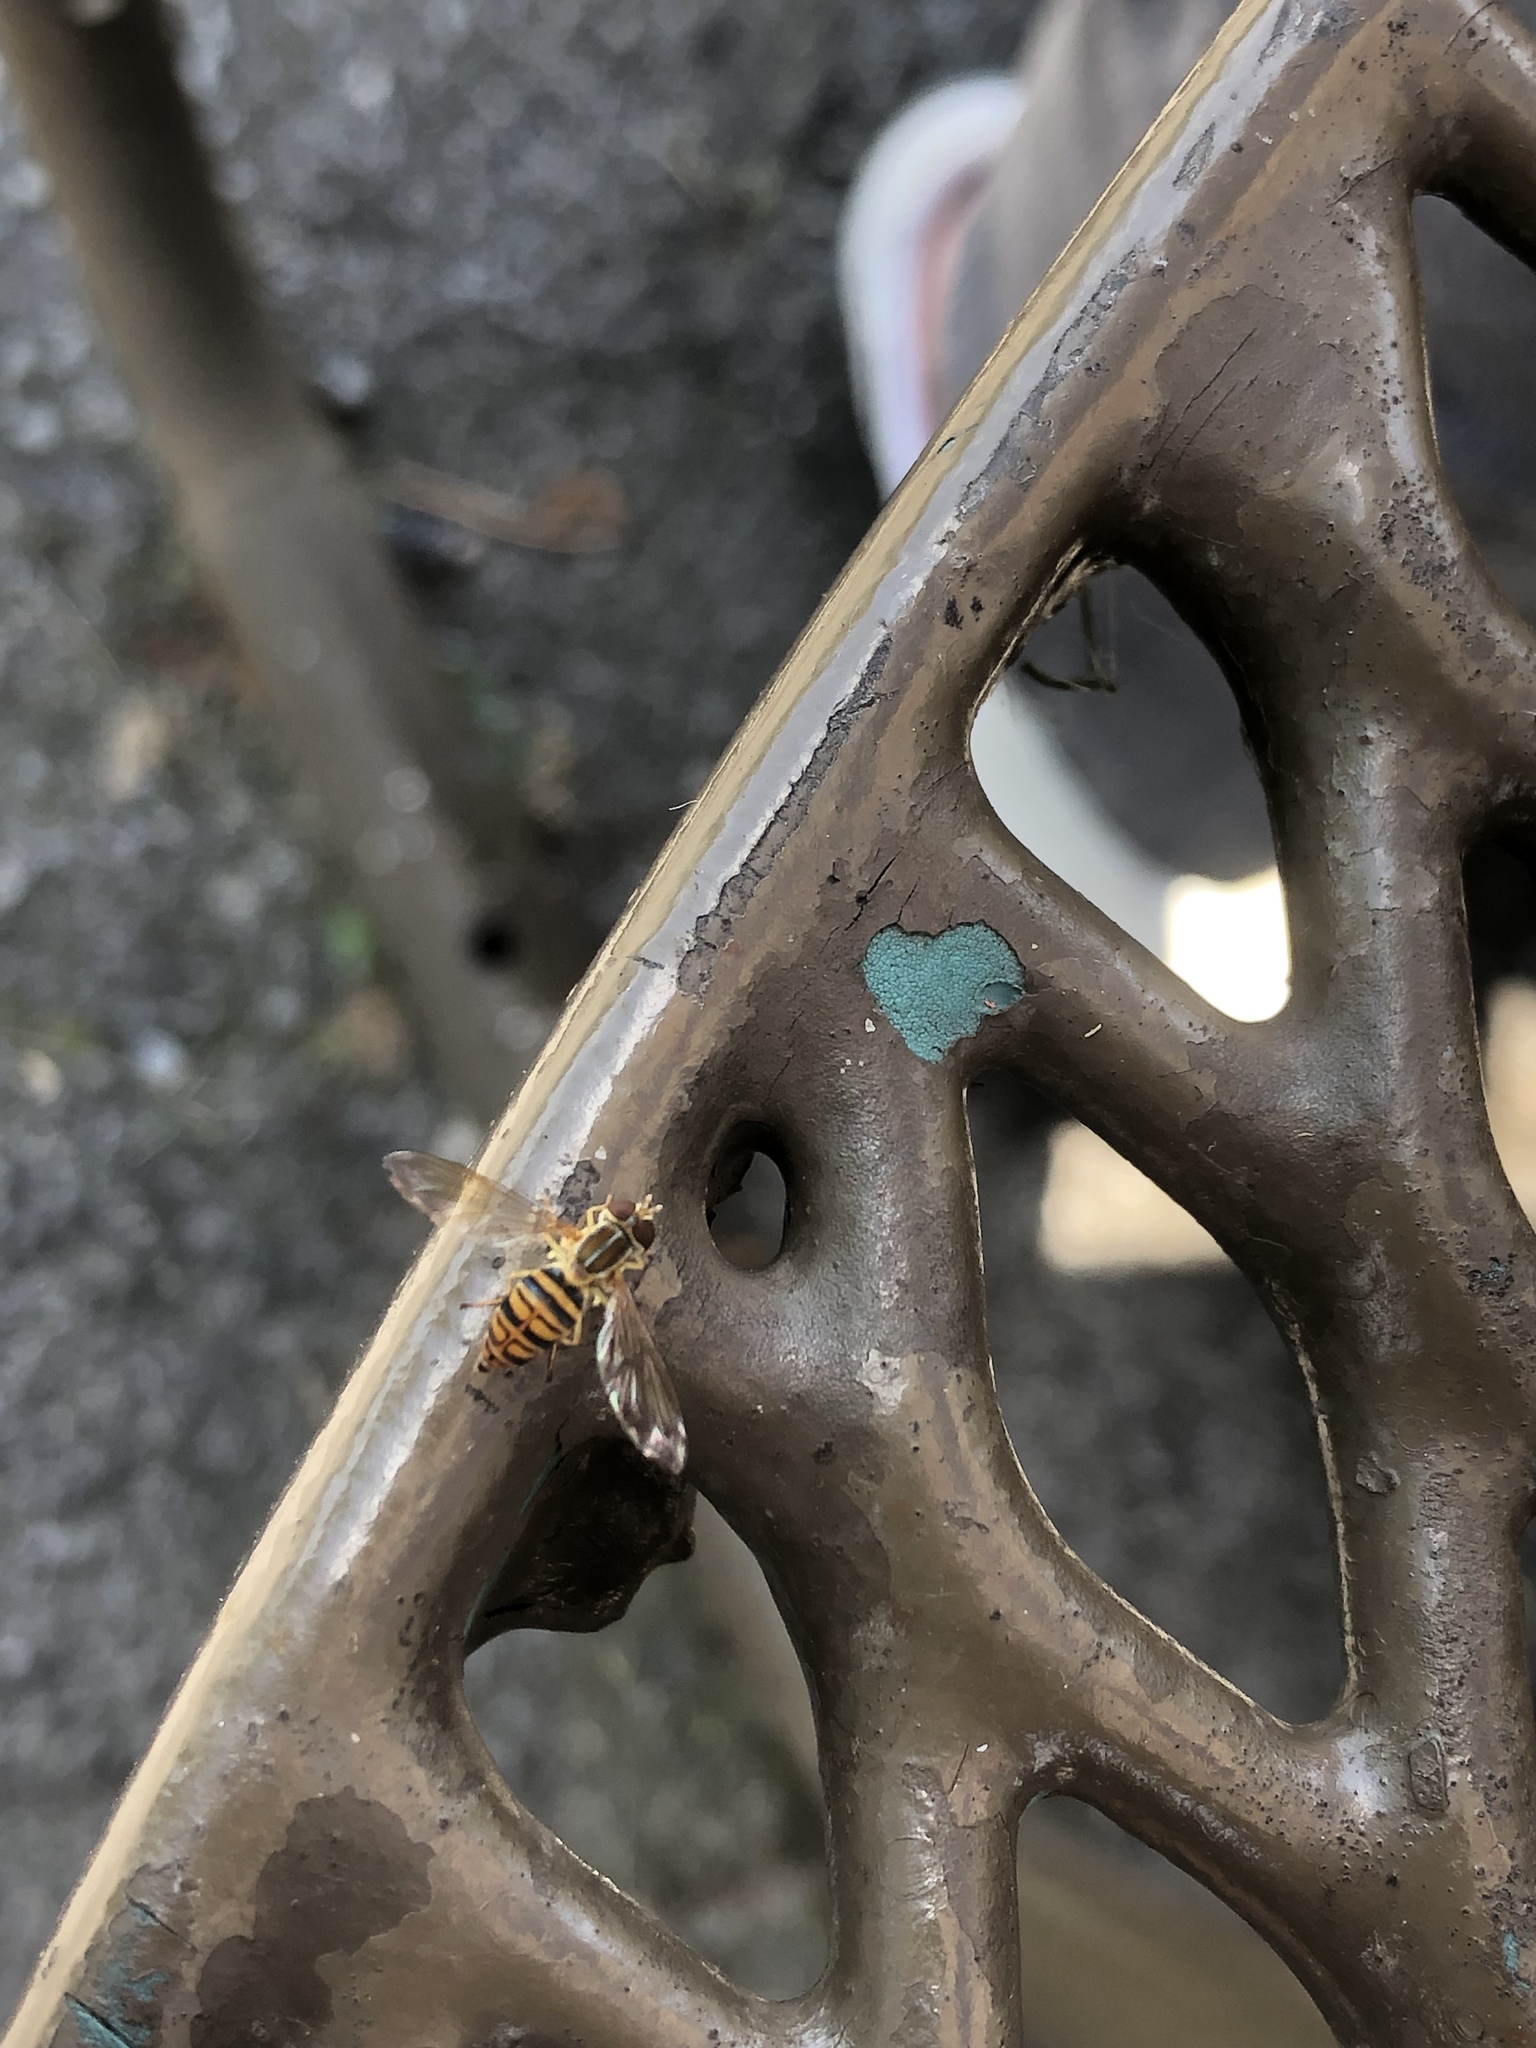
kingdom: Animalia
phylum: Arthropoda
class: Insecta
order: Diptera
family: Syrphidae
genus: Toxomerus
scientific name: Toxomerus politus
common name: Maize calligrapher
